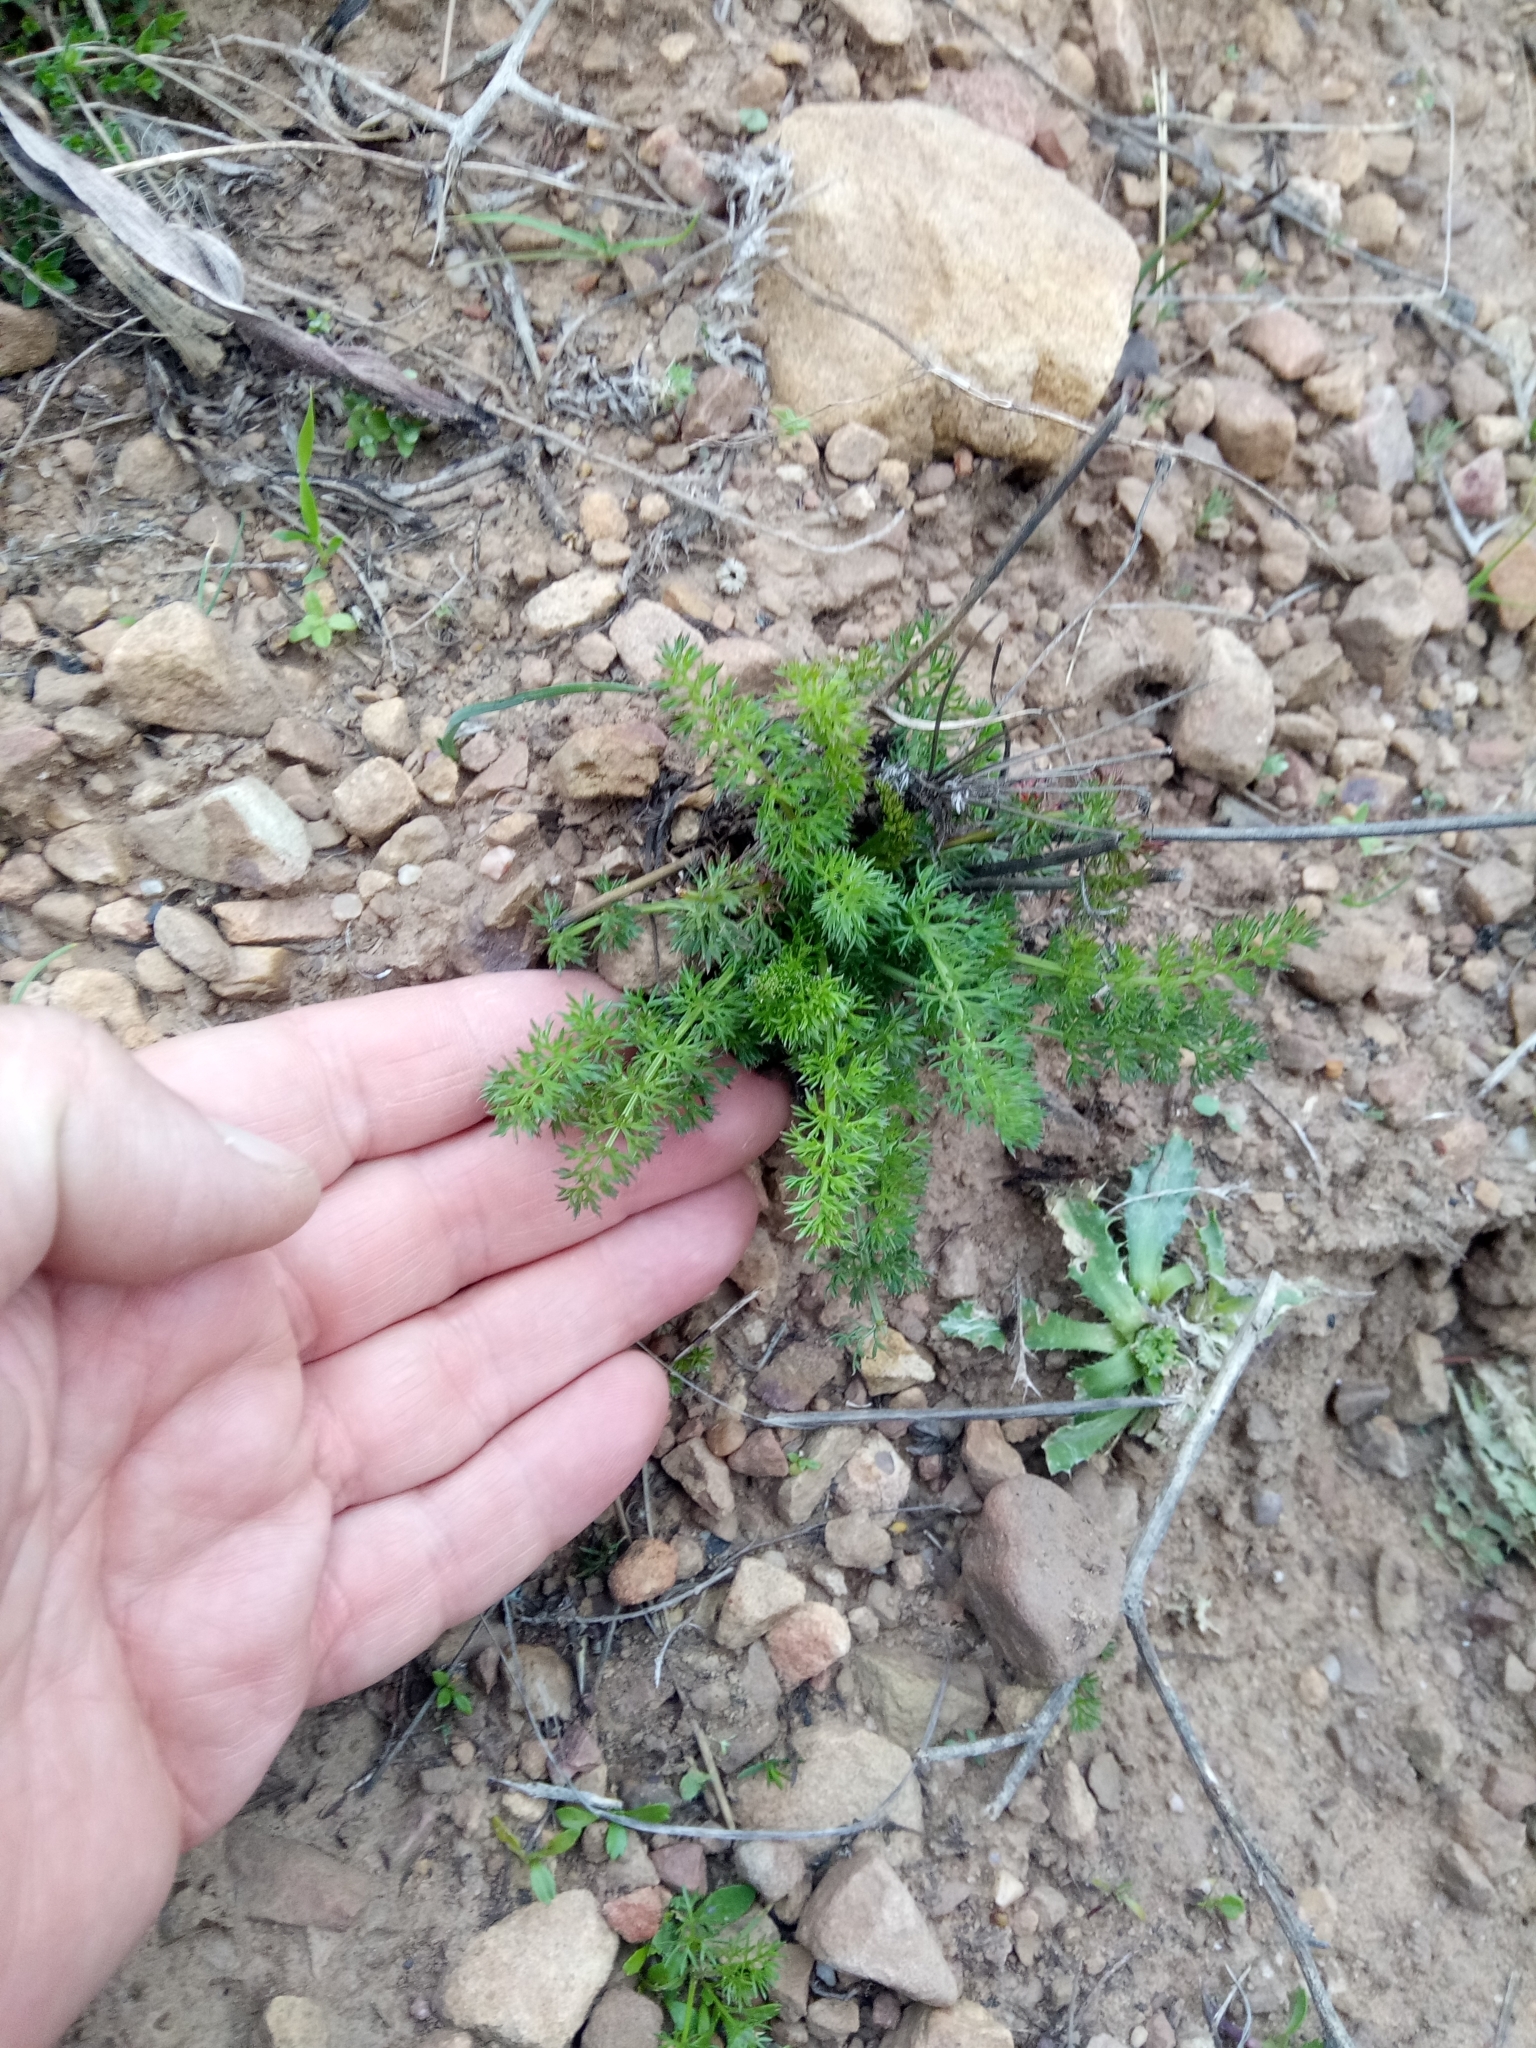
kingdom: Plantae
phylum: Tracheophyta
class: Magnoliopsida
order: Apiales
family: Apiaceae
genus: Daucus
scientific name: Daucus crinitus
